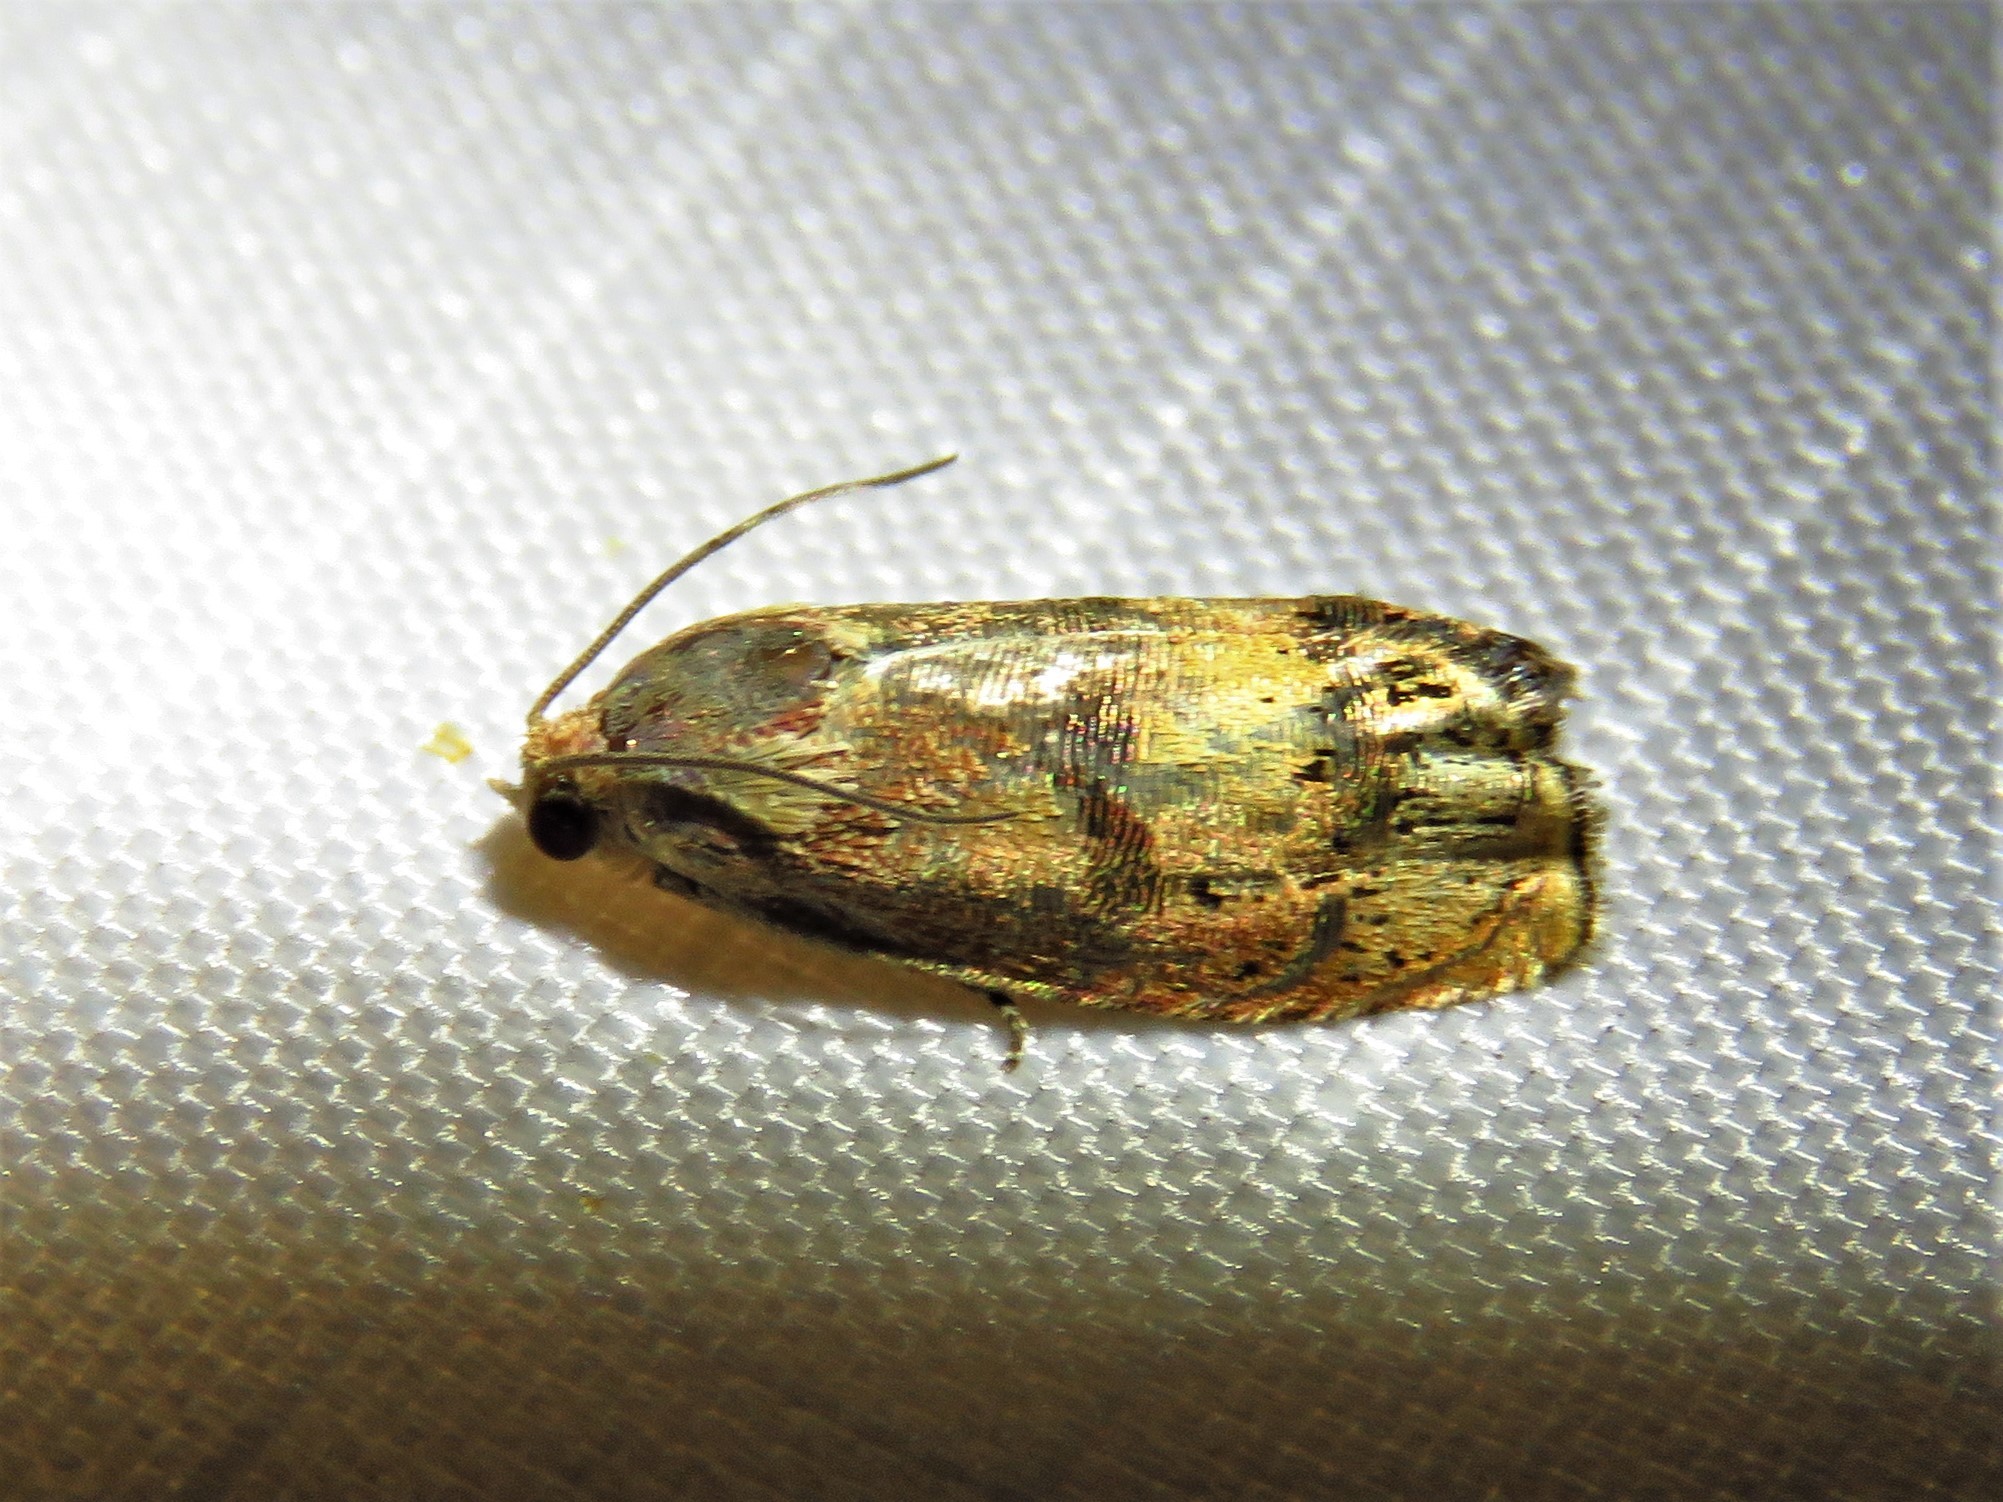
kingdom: Animalia
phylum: Arthropoda
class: Insecta
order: Lepidoptera
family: Tortricidae
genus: Cydia
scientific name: Cydia latiferreana
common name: Filbertworm moth
